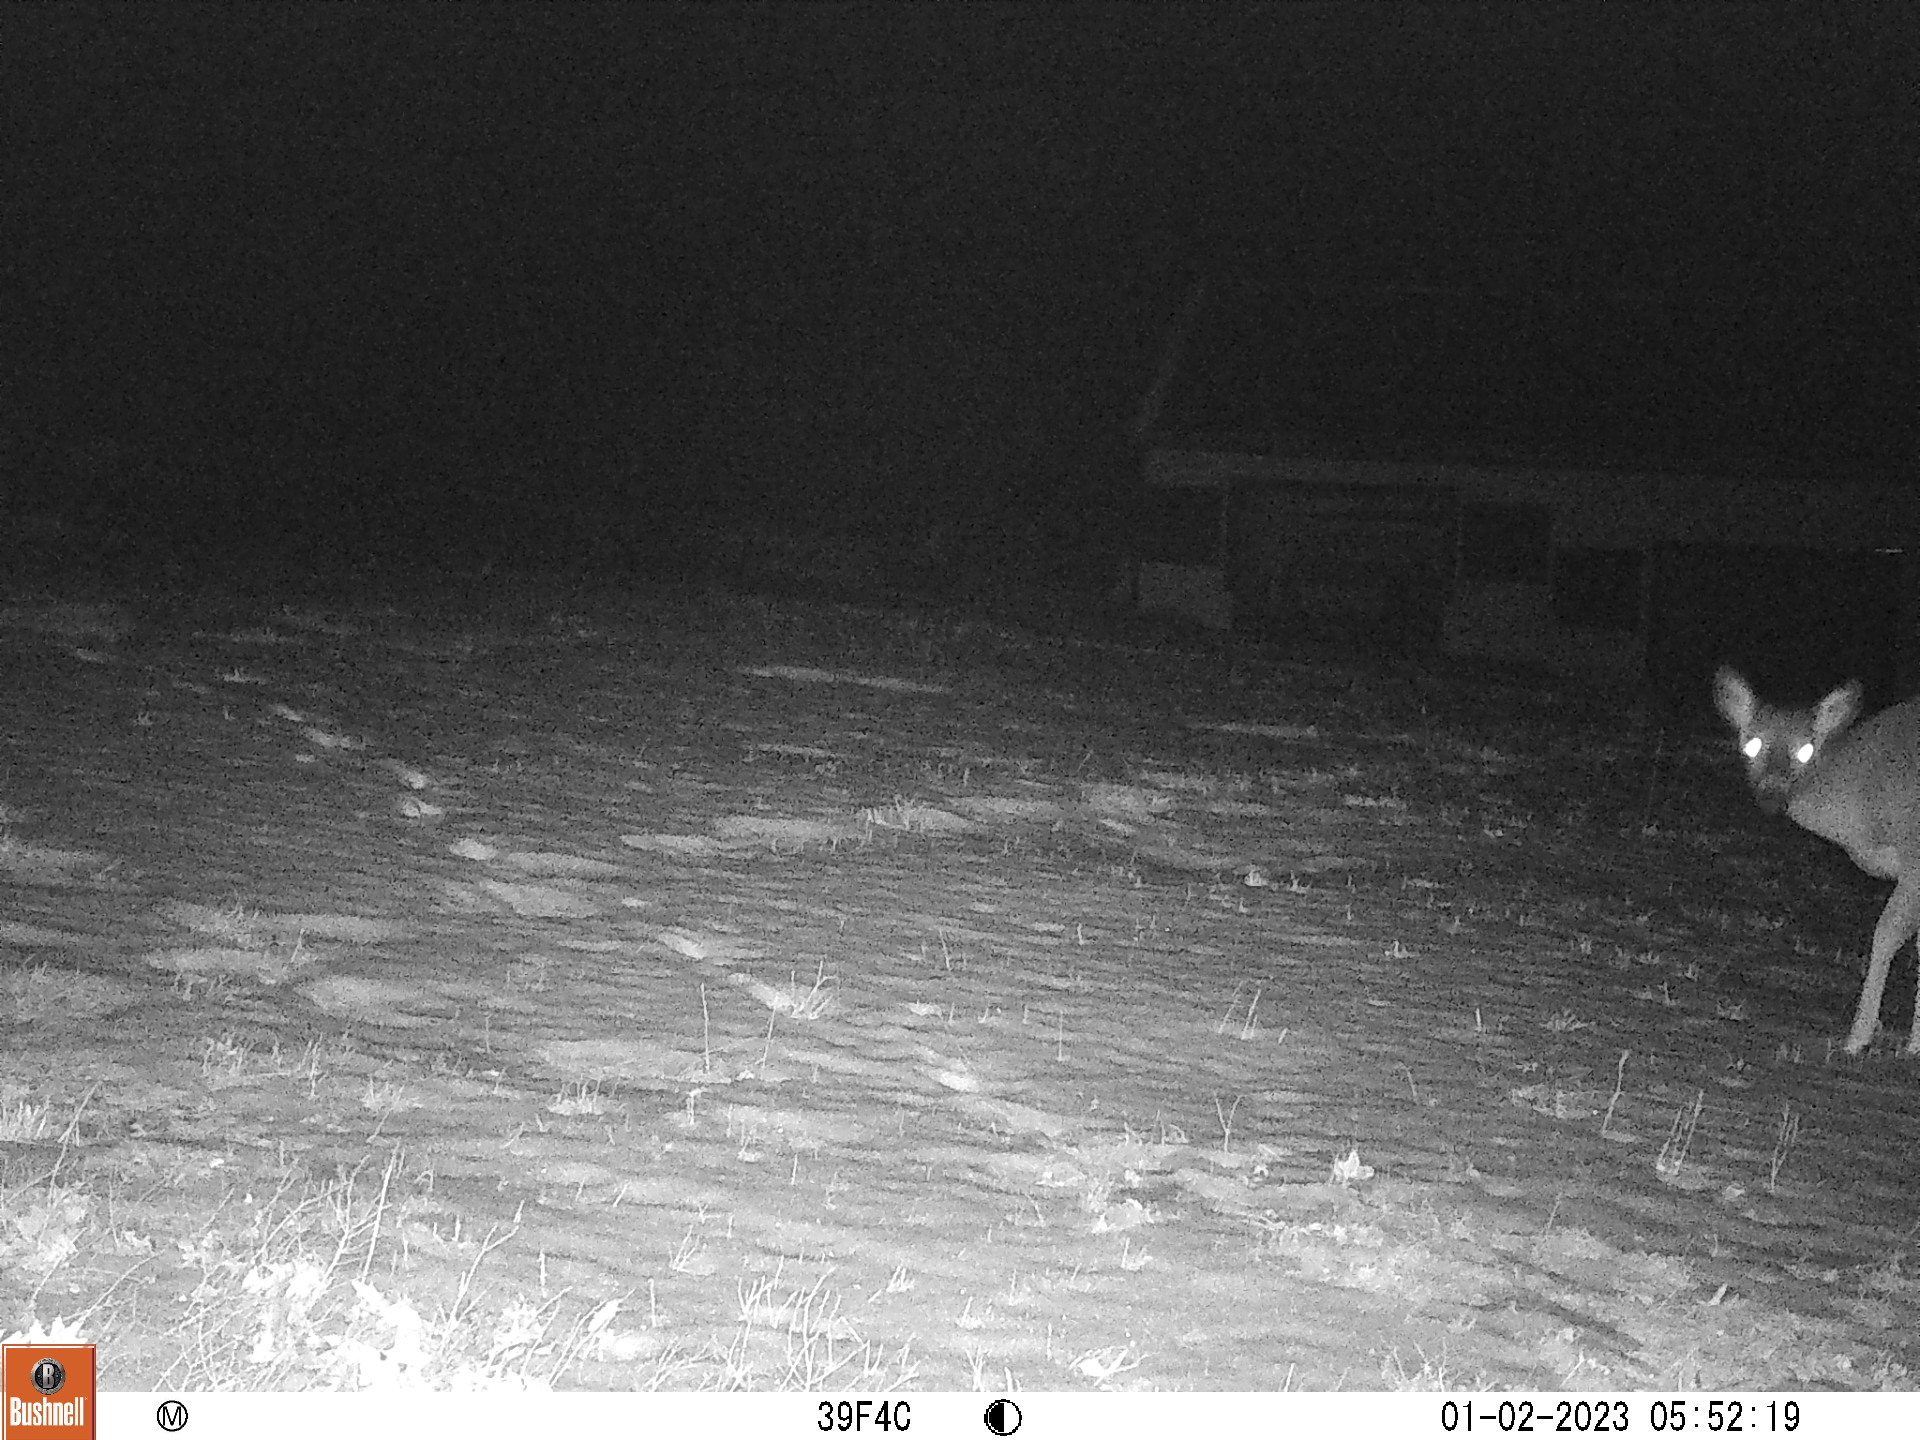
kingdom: Animalia
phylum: Chordata
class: Mammalia
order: Artiodactyla
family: Cervidae
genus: Odocoileus
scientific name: Odocoileus virginianus
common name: White-tailed deer
